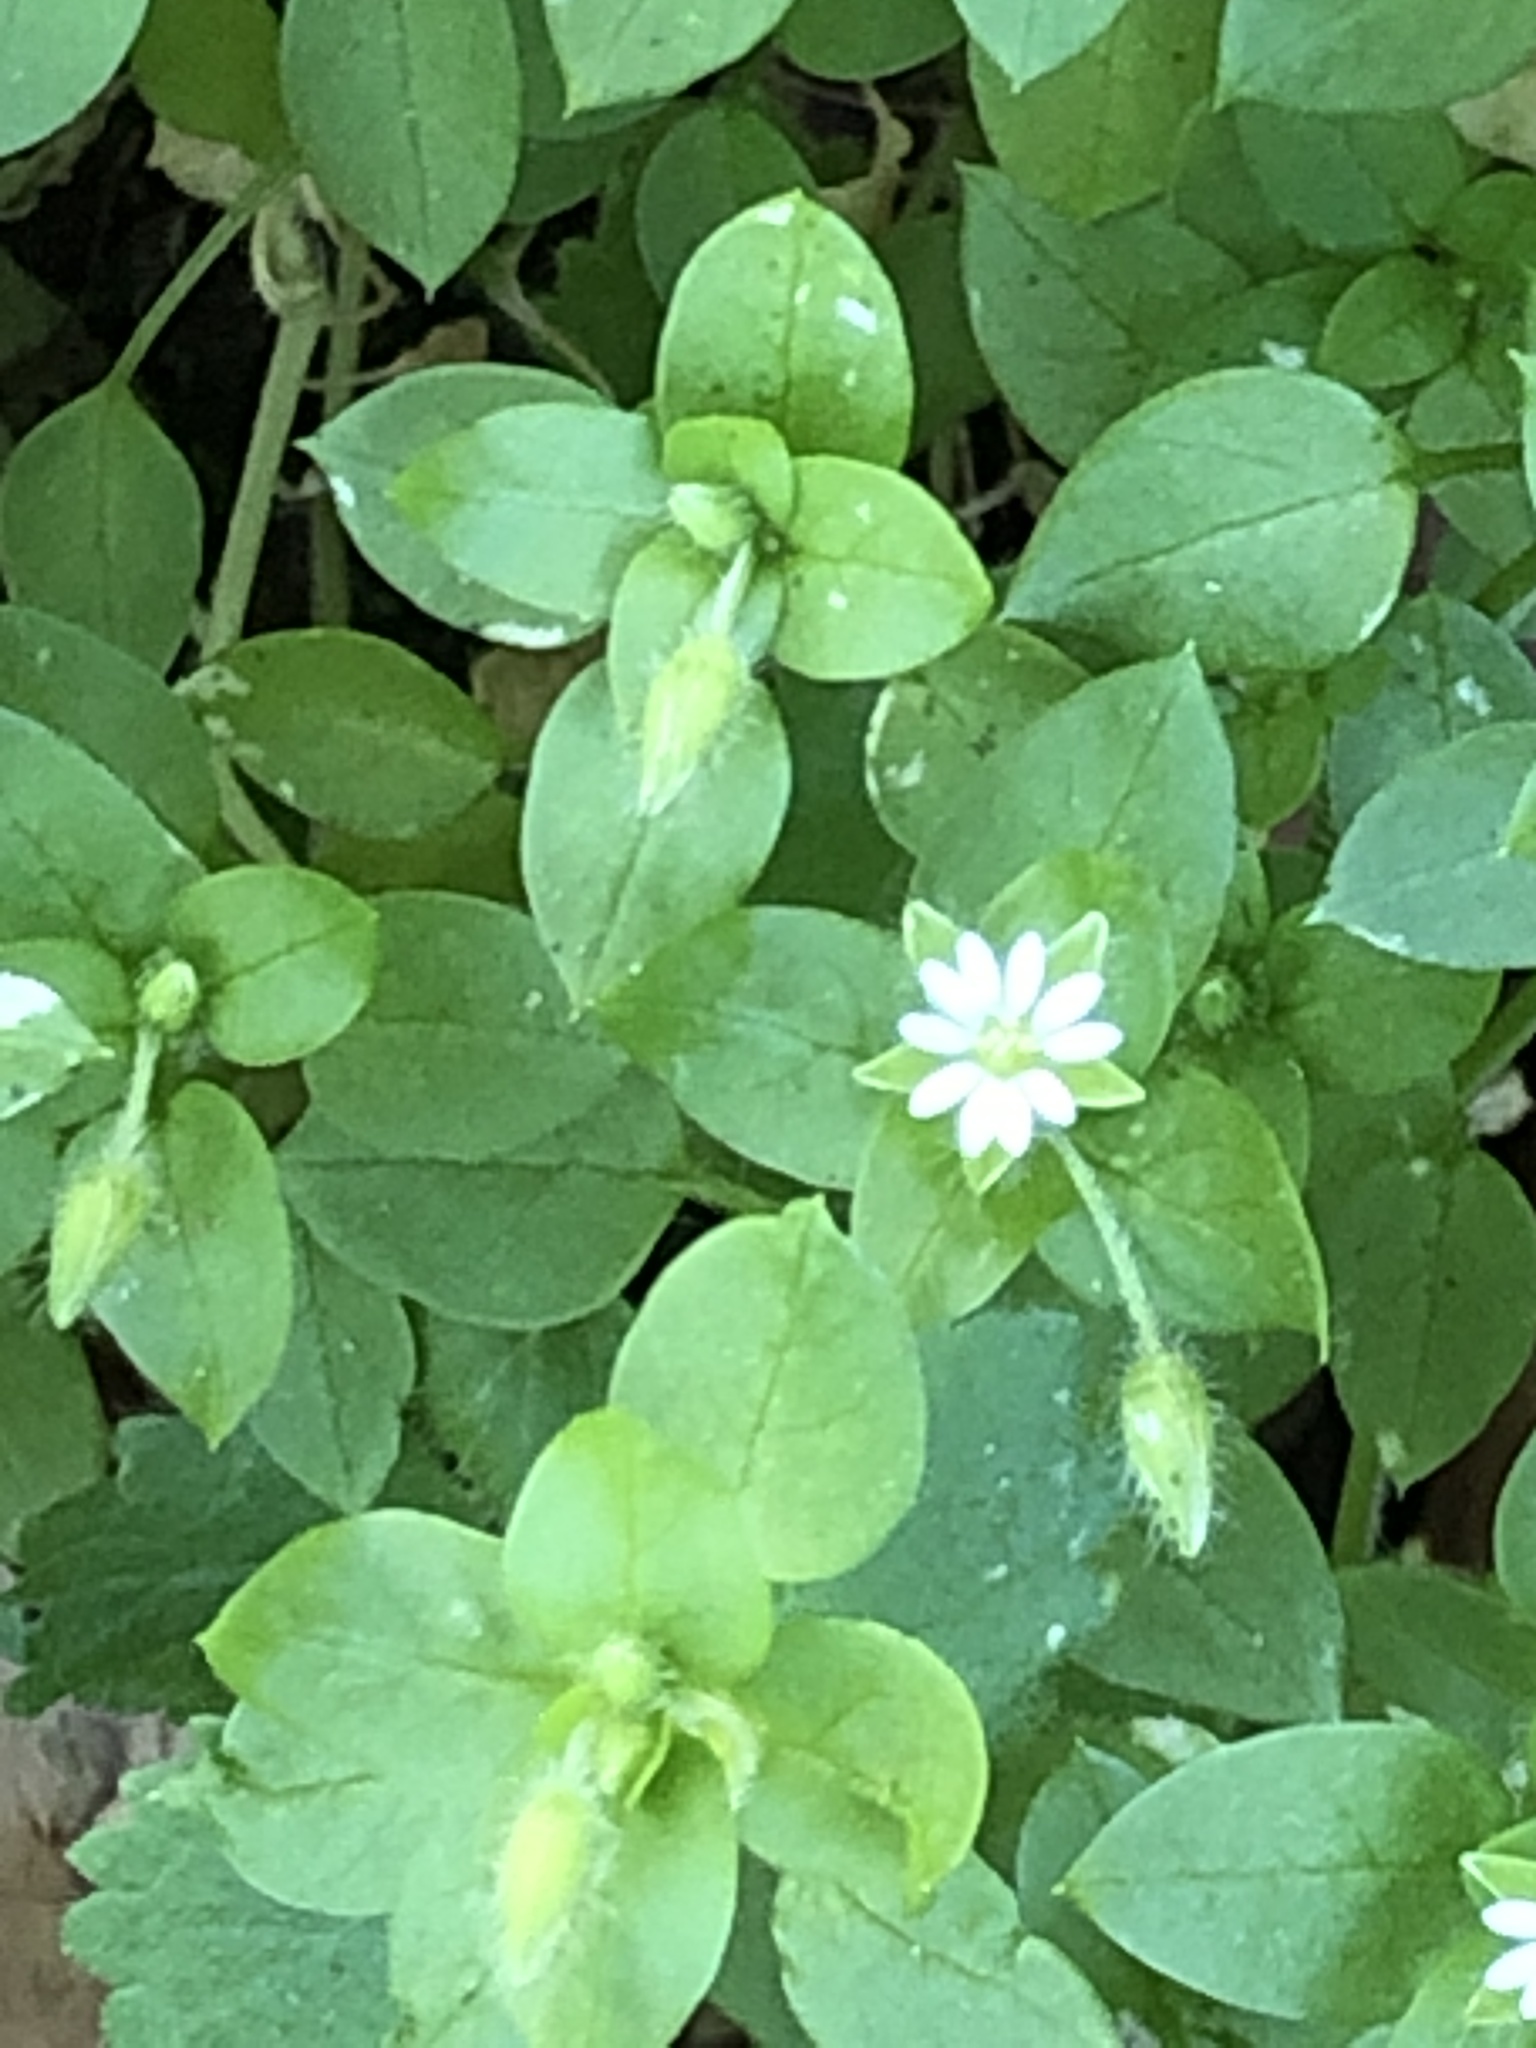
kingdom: Plantae
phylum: Tracheophyta
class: Magnoliopsida
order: Caryophyllales
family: Caryophyllaceae
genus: Stellaria
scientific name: Stellaria media
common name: Common chickweed
